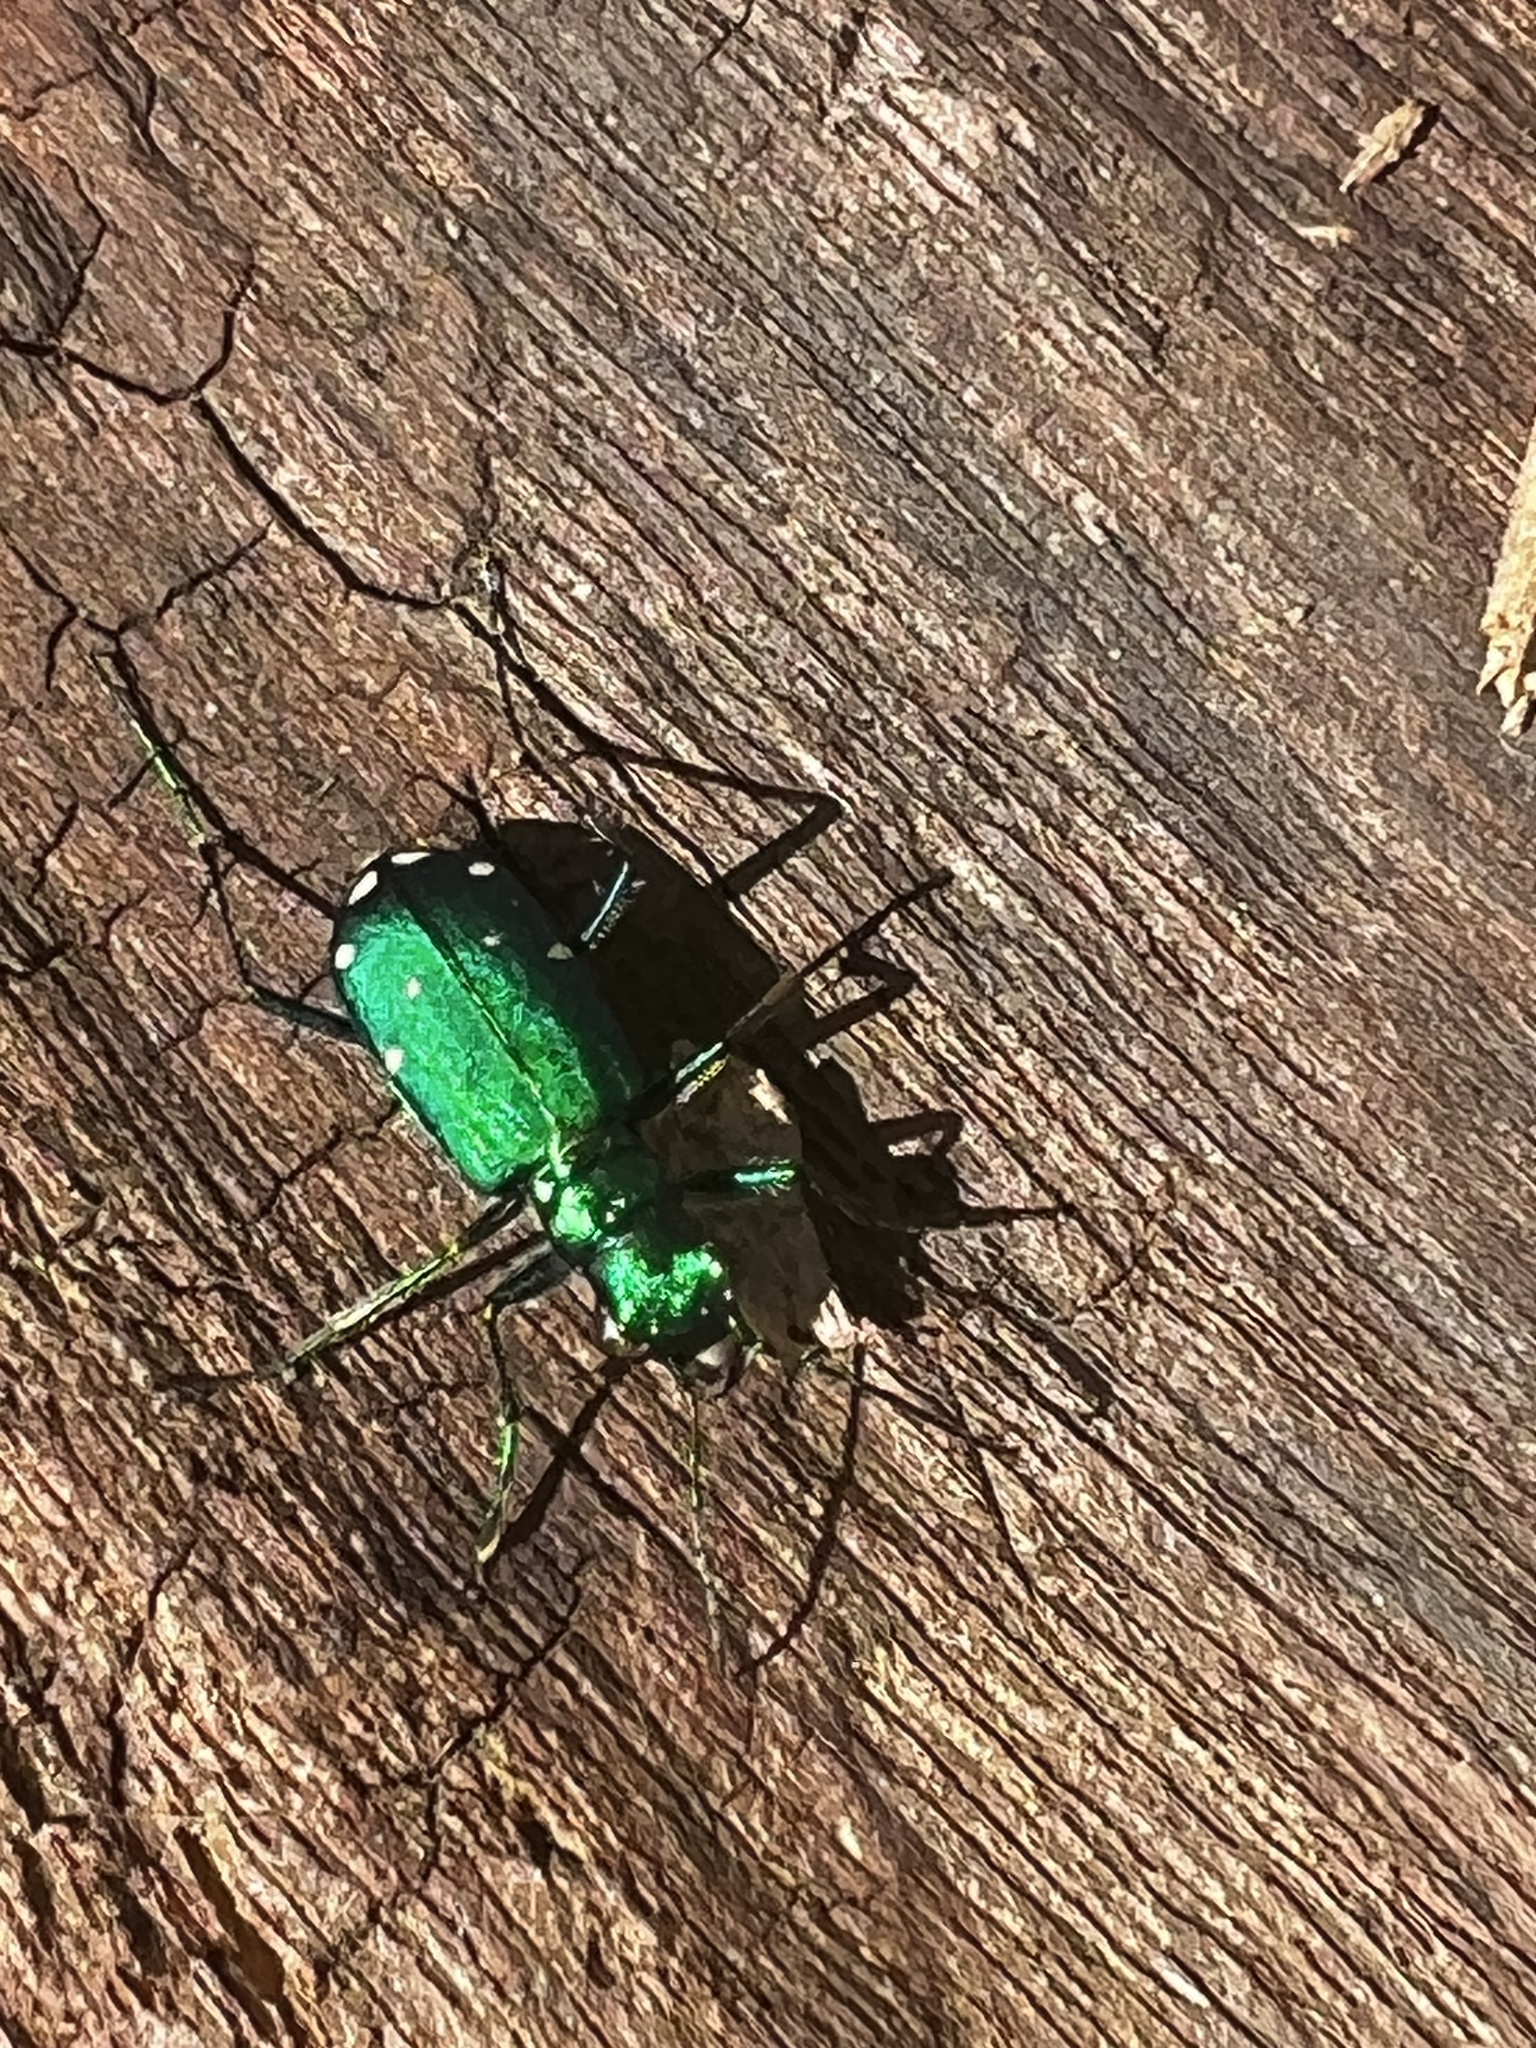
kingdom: Animalia
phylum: Arthropoda
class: Insecta
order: Coleoptera
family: Carabidae
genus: Cicindela
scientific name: Cicindela sexguttata
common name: Six-spotted tiger beetle
